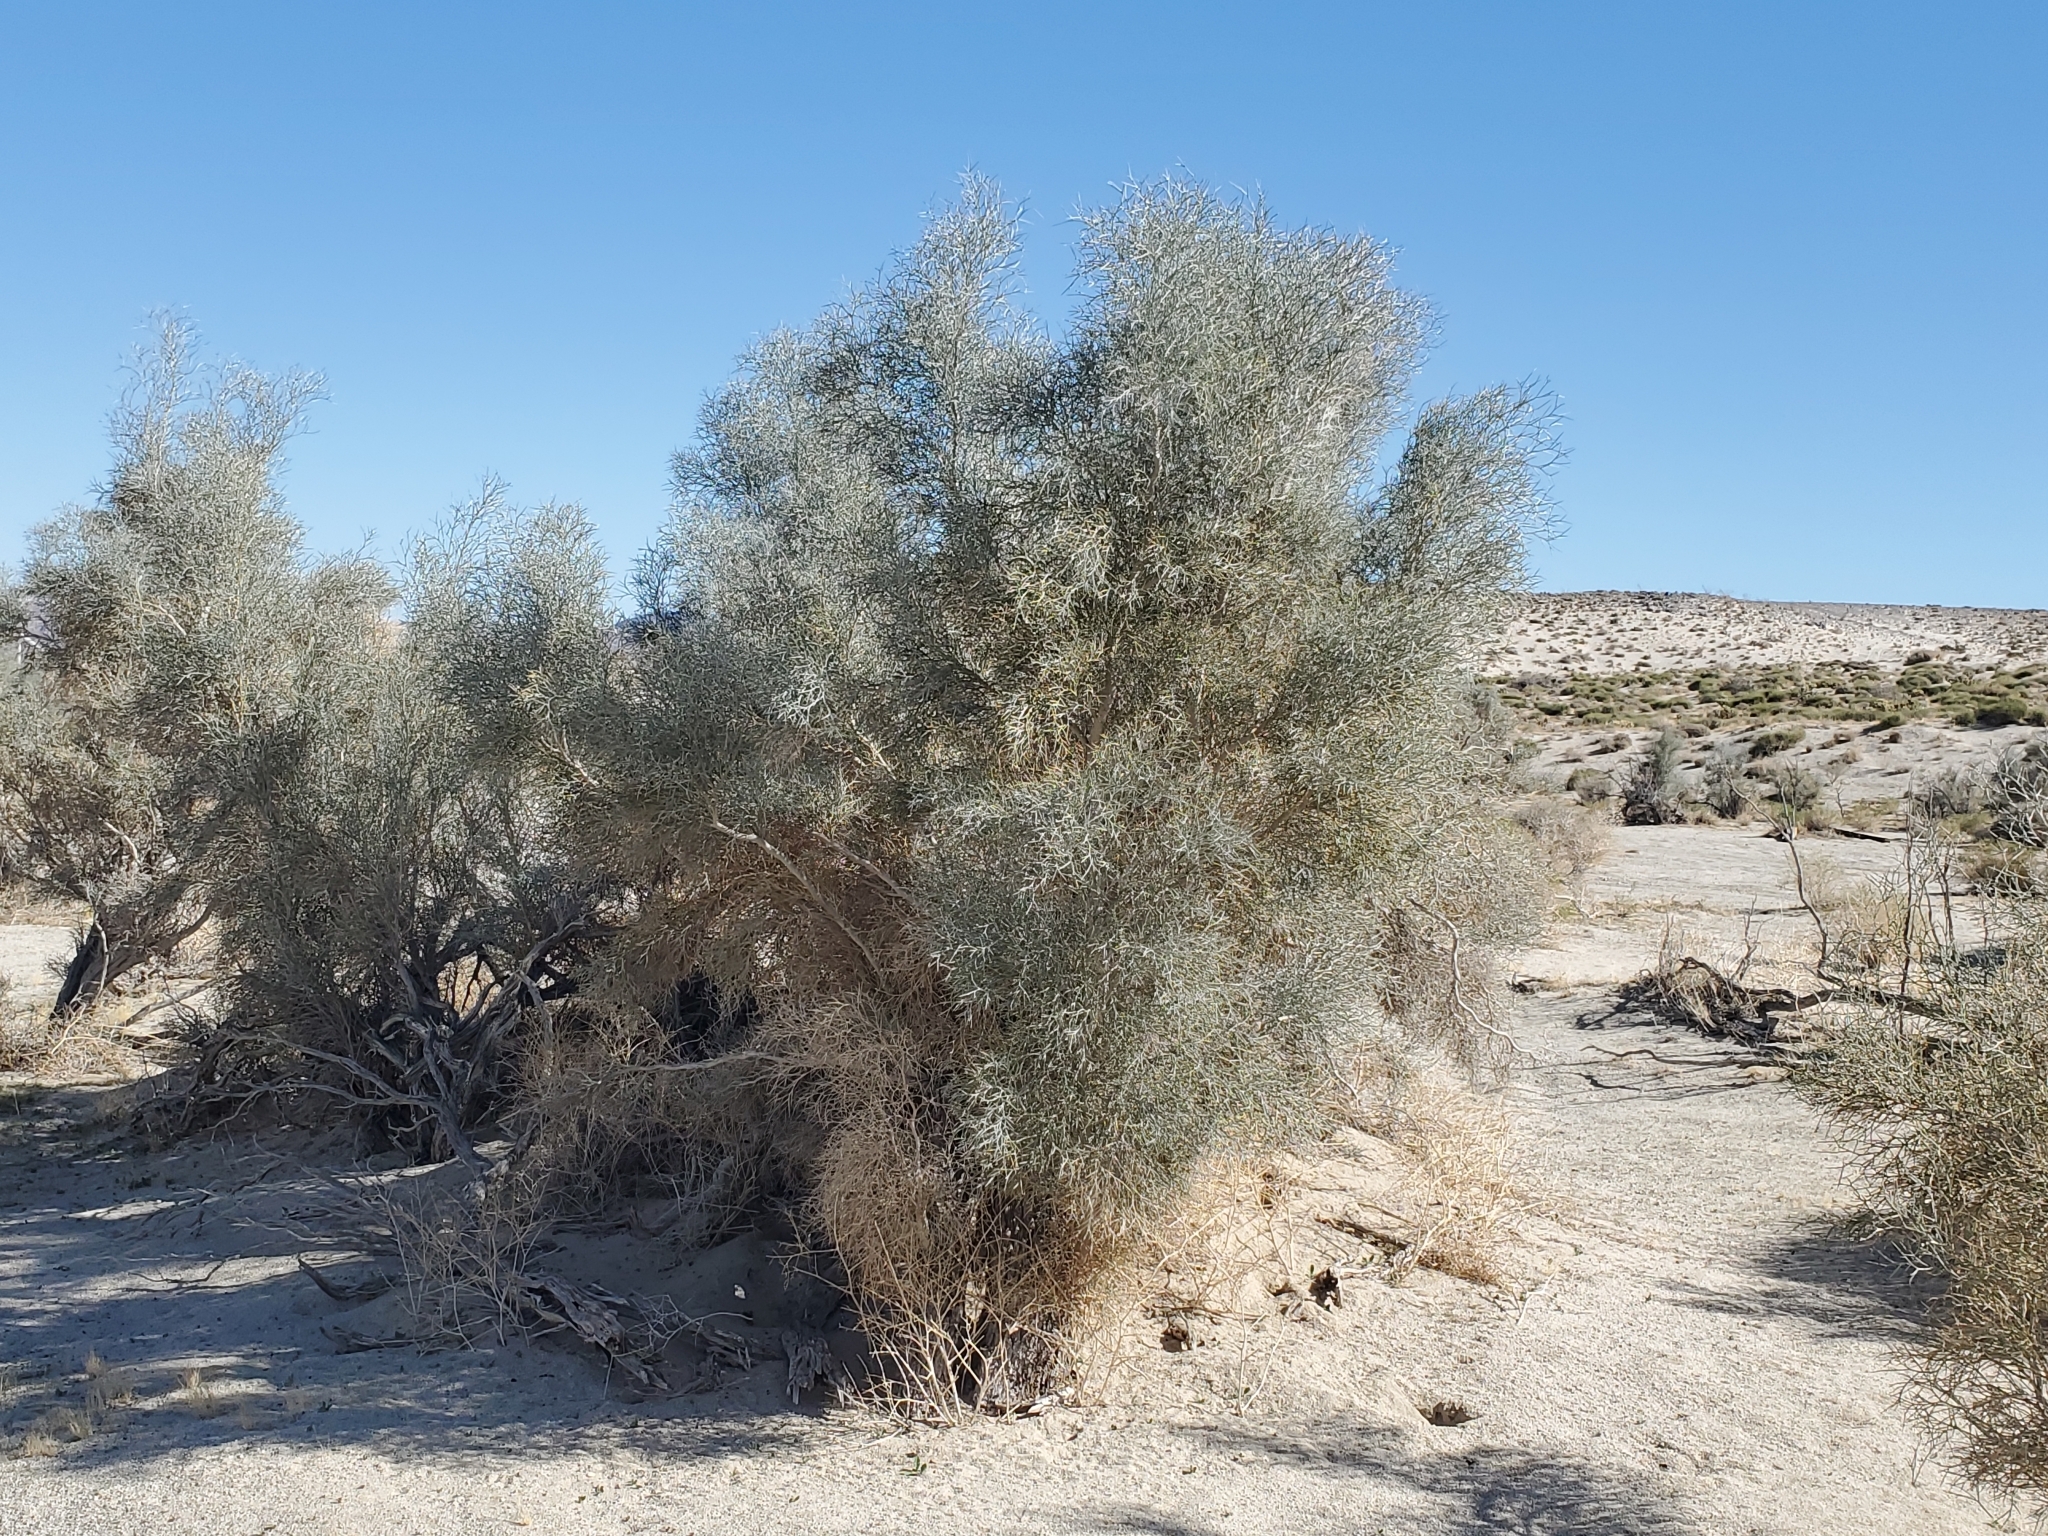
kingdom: Plantae
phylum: Tracheophyta
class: Magnoliopsida
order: Fabales
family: Fabaceae
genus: Psorothamnus
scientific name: Psorothamnus spinosus
